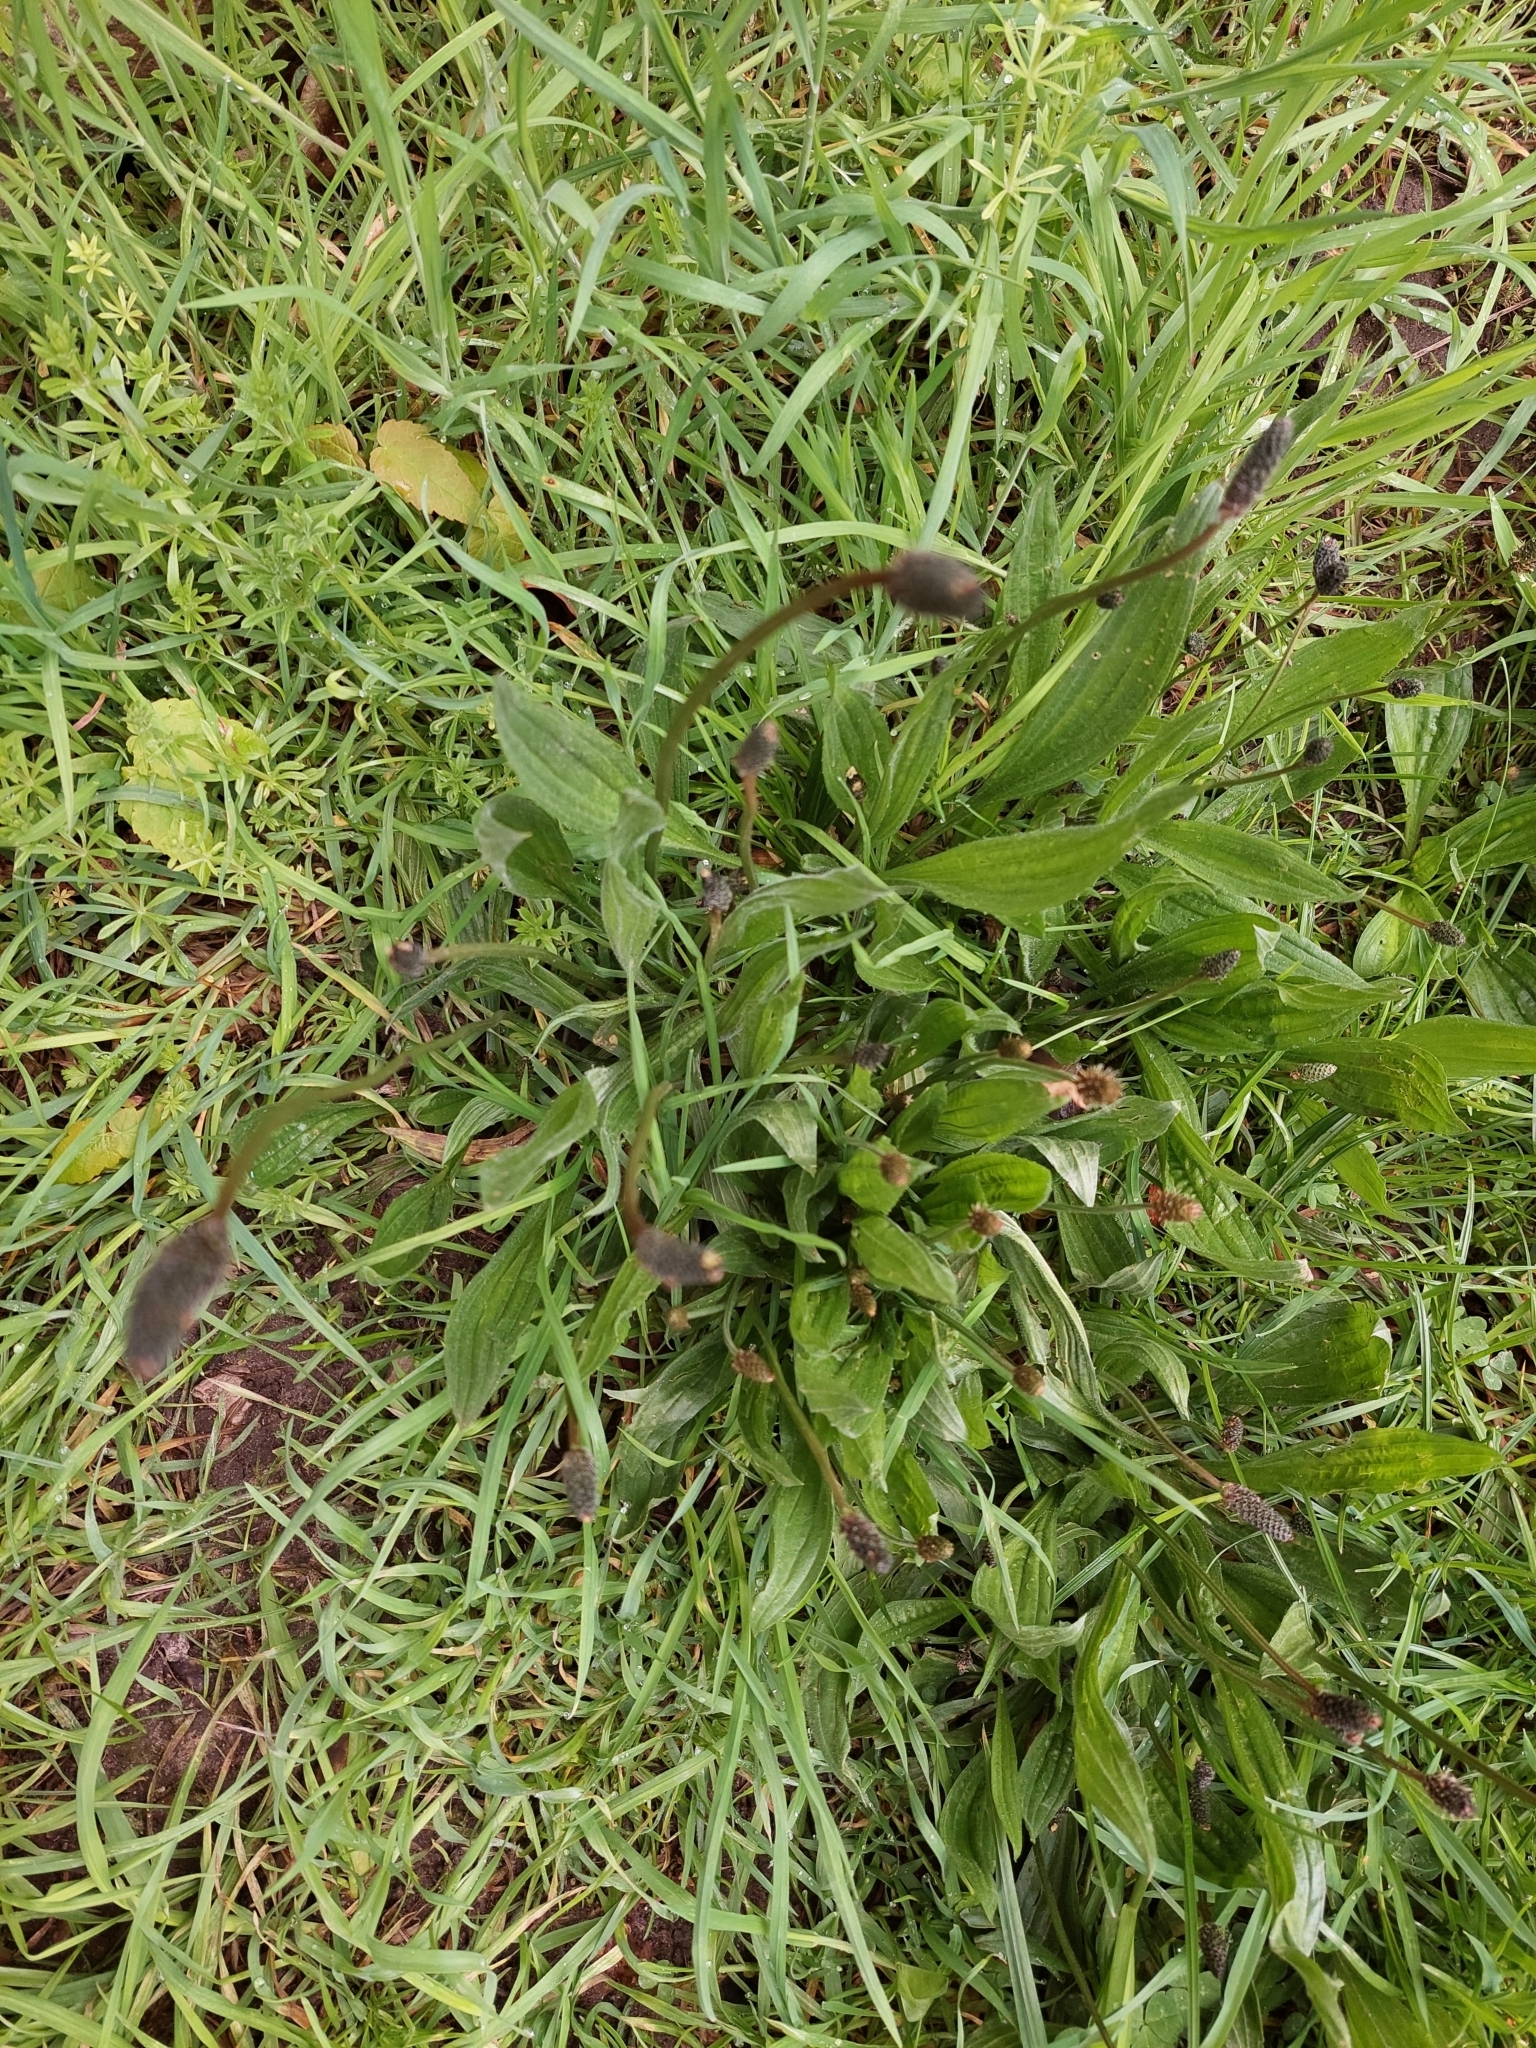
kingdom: Plantae
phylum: Tracheophyta
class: Magnoliopsida
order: Lamiales
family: Plantaginaceae
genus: Plantago
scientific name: Plantago lanceolata
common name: Ribwort plantain
